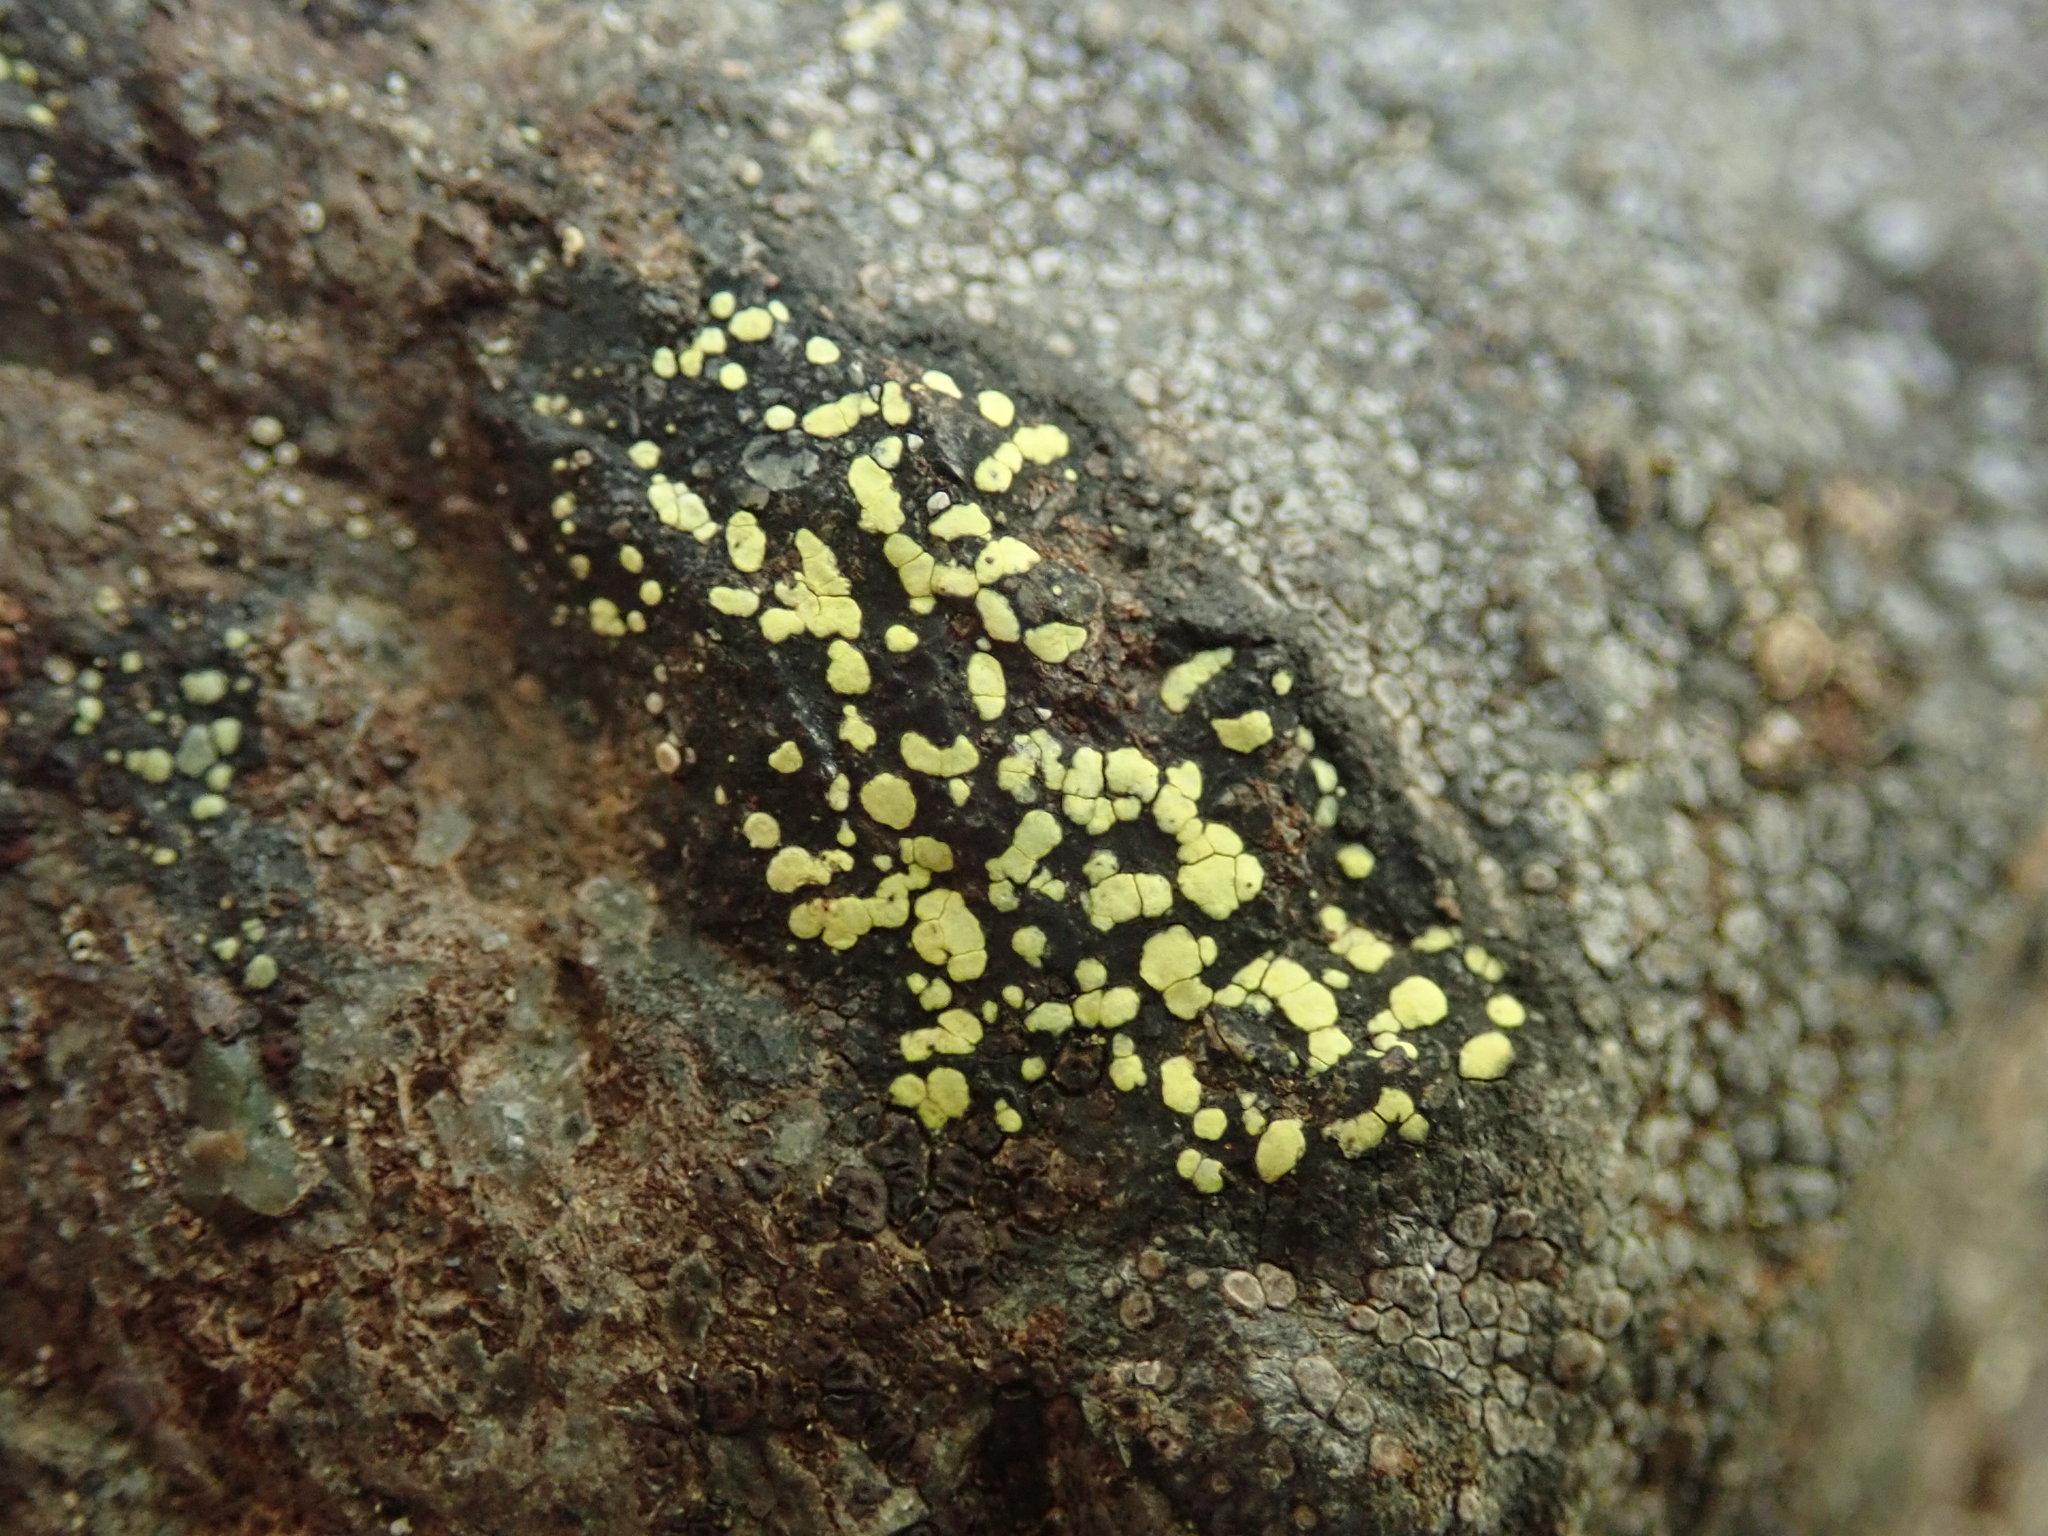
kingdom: Fungi
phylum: Ascomycota
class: Lecanoromycetes
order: Rhizocarpales
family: Rhizocarpaceae
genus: Rhizocarpon
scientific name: Rhizocarpon geographicum
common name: Yellow map lichen
